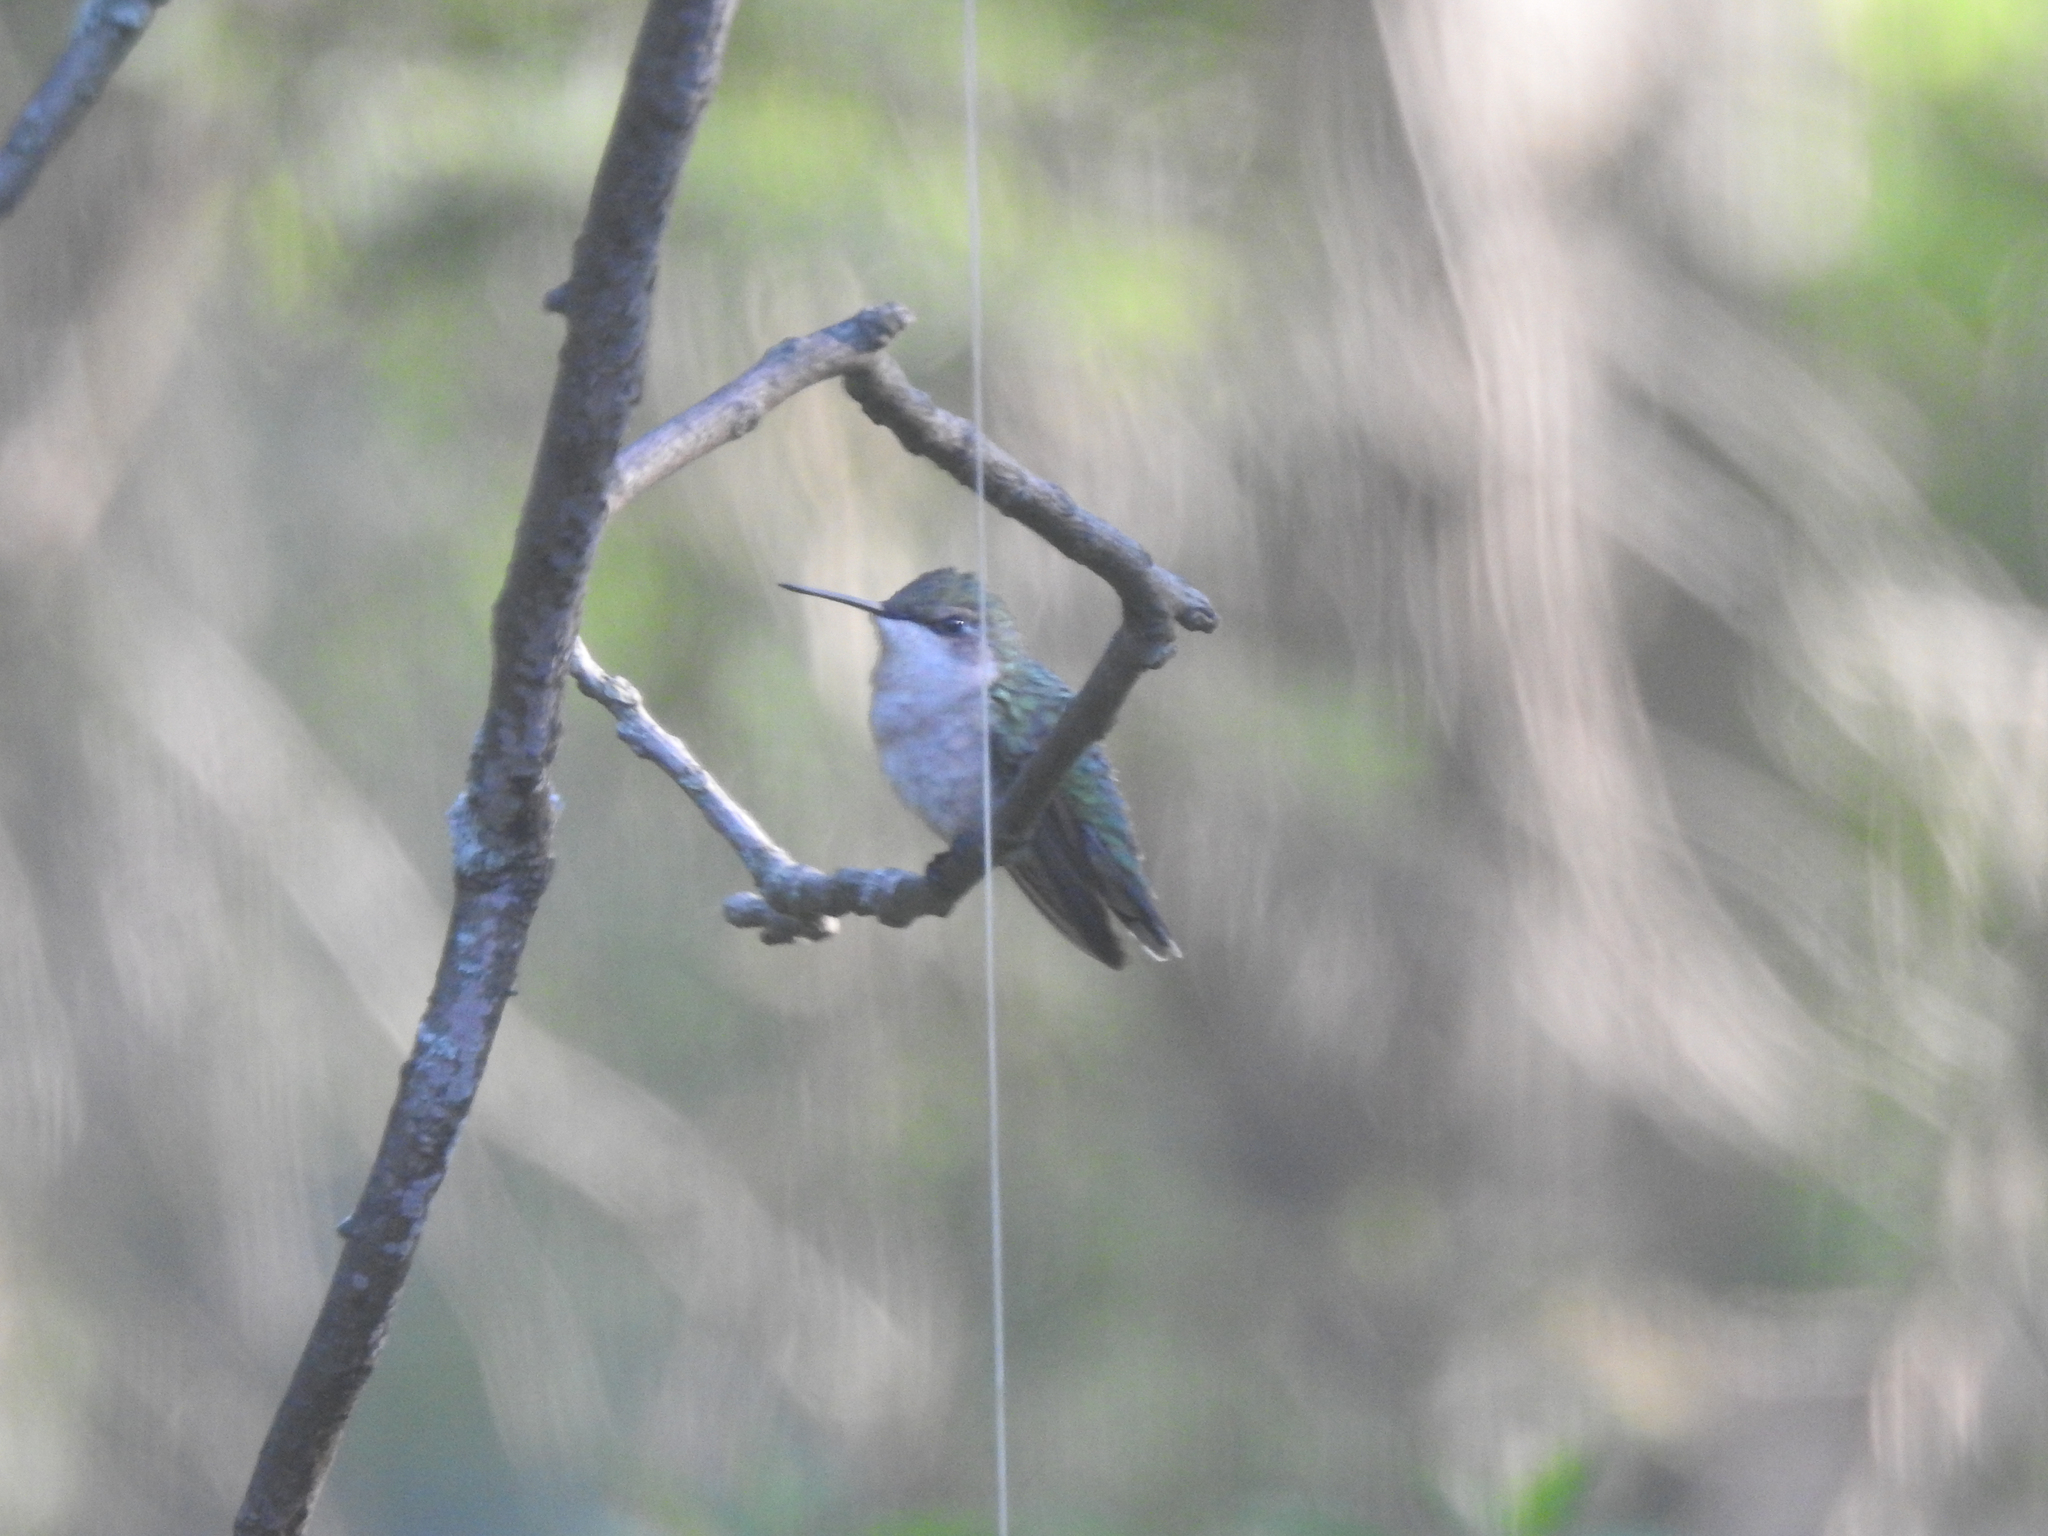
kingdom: Animalia
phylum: Chordata
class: Aves
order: Apodiformes
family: Trochilidae
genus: Archilochus
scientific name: Archilochus colubris
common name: Ruby-throated hummingbird
